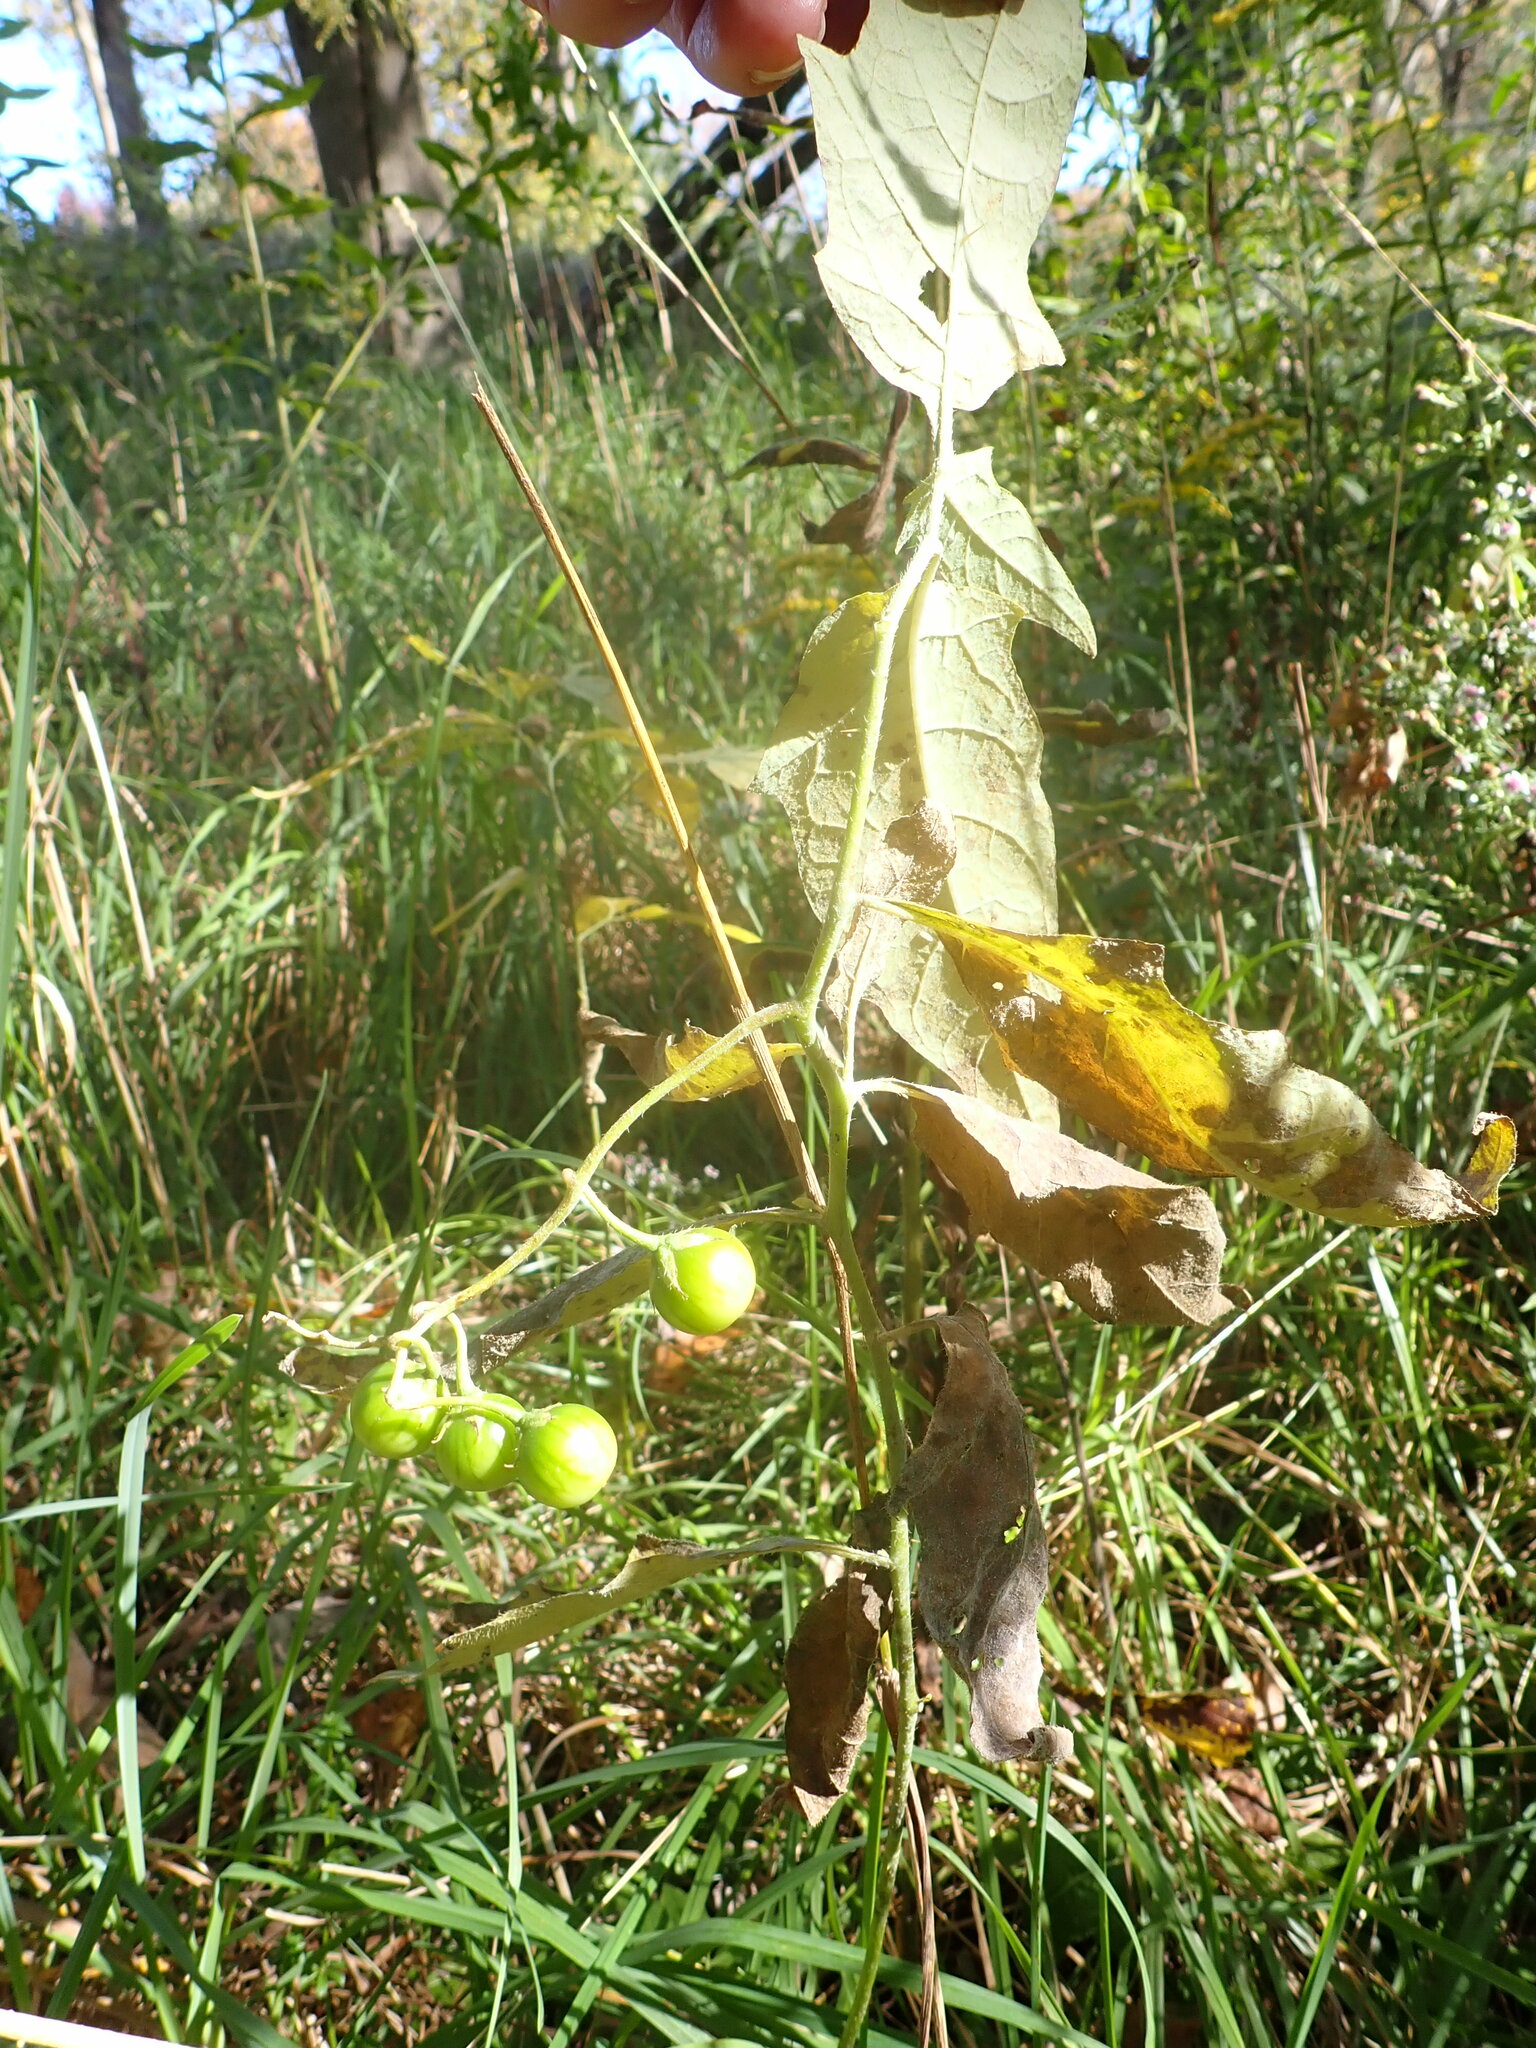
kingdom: Plantae
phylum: Tracheophyta
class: Magnoliopsida
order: Solanales
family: Solanaceae
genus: Solanum
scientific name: Solanum carolinense
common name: Horse-nettle
